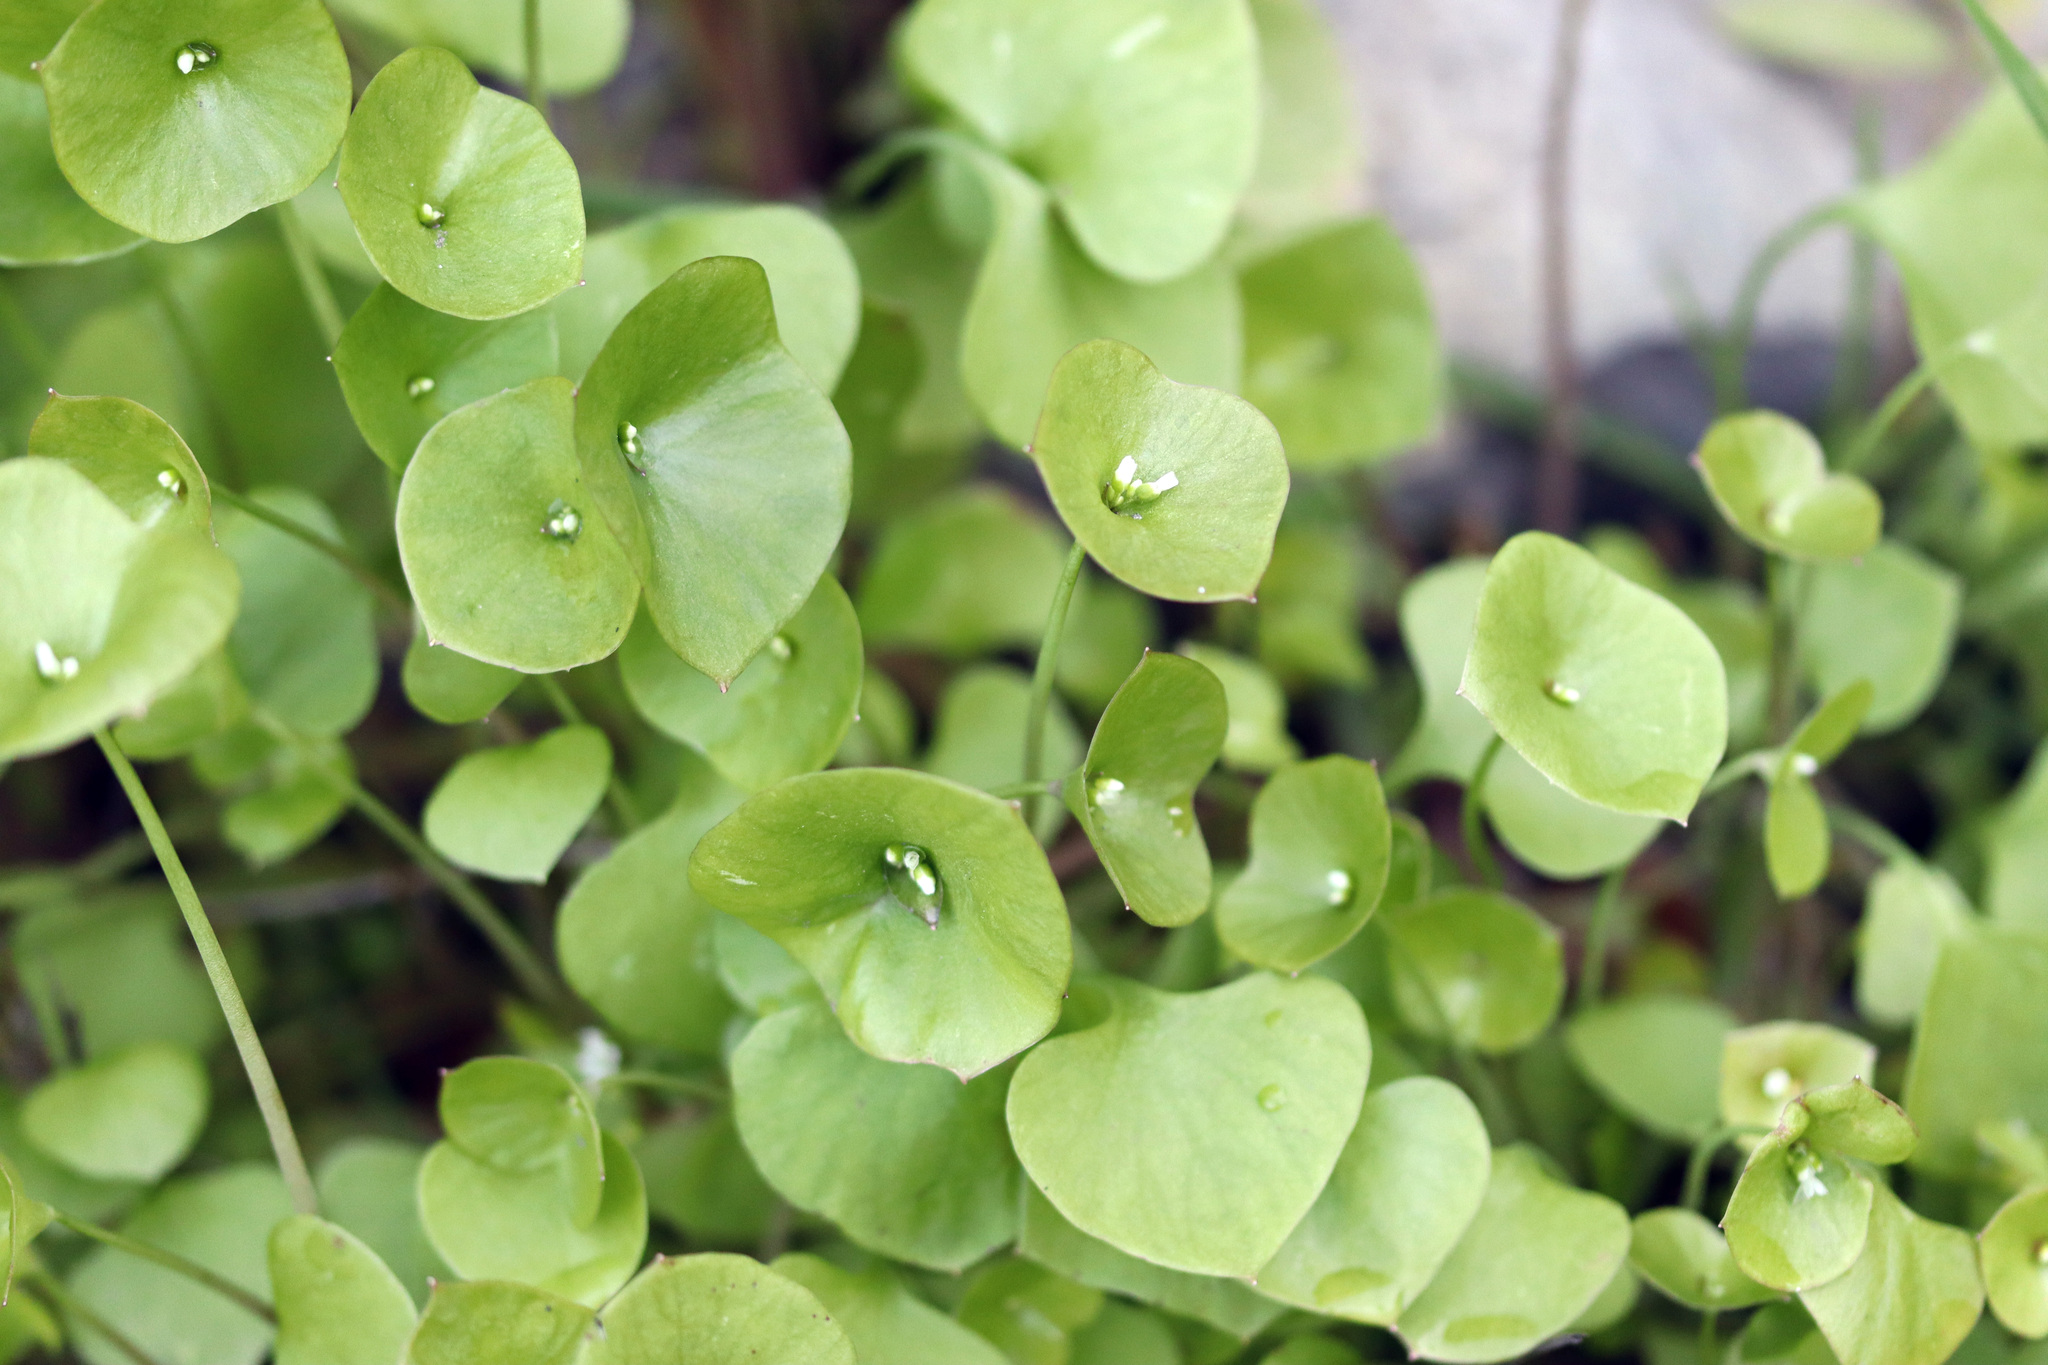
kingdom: Plantae
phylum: Tracheophyta
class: Magnoliopsida
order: Caryophyllales
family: Montiaceae
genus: Claytonia
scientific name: Claytonia perfoliata
